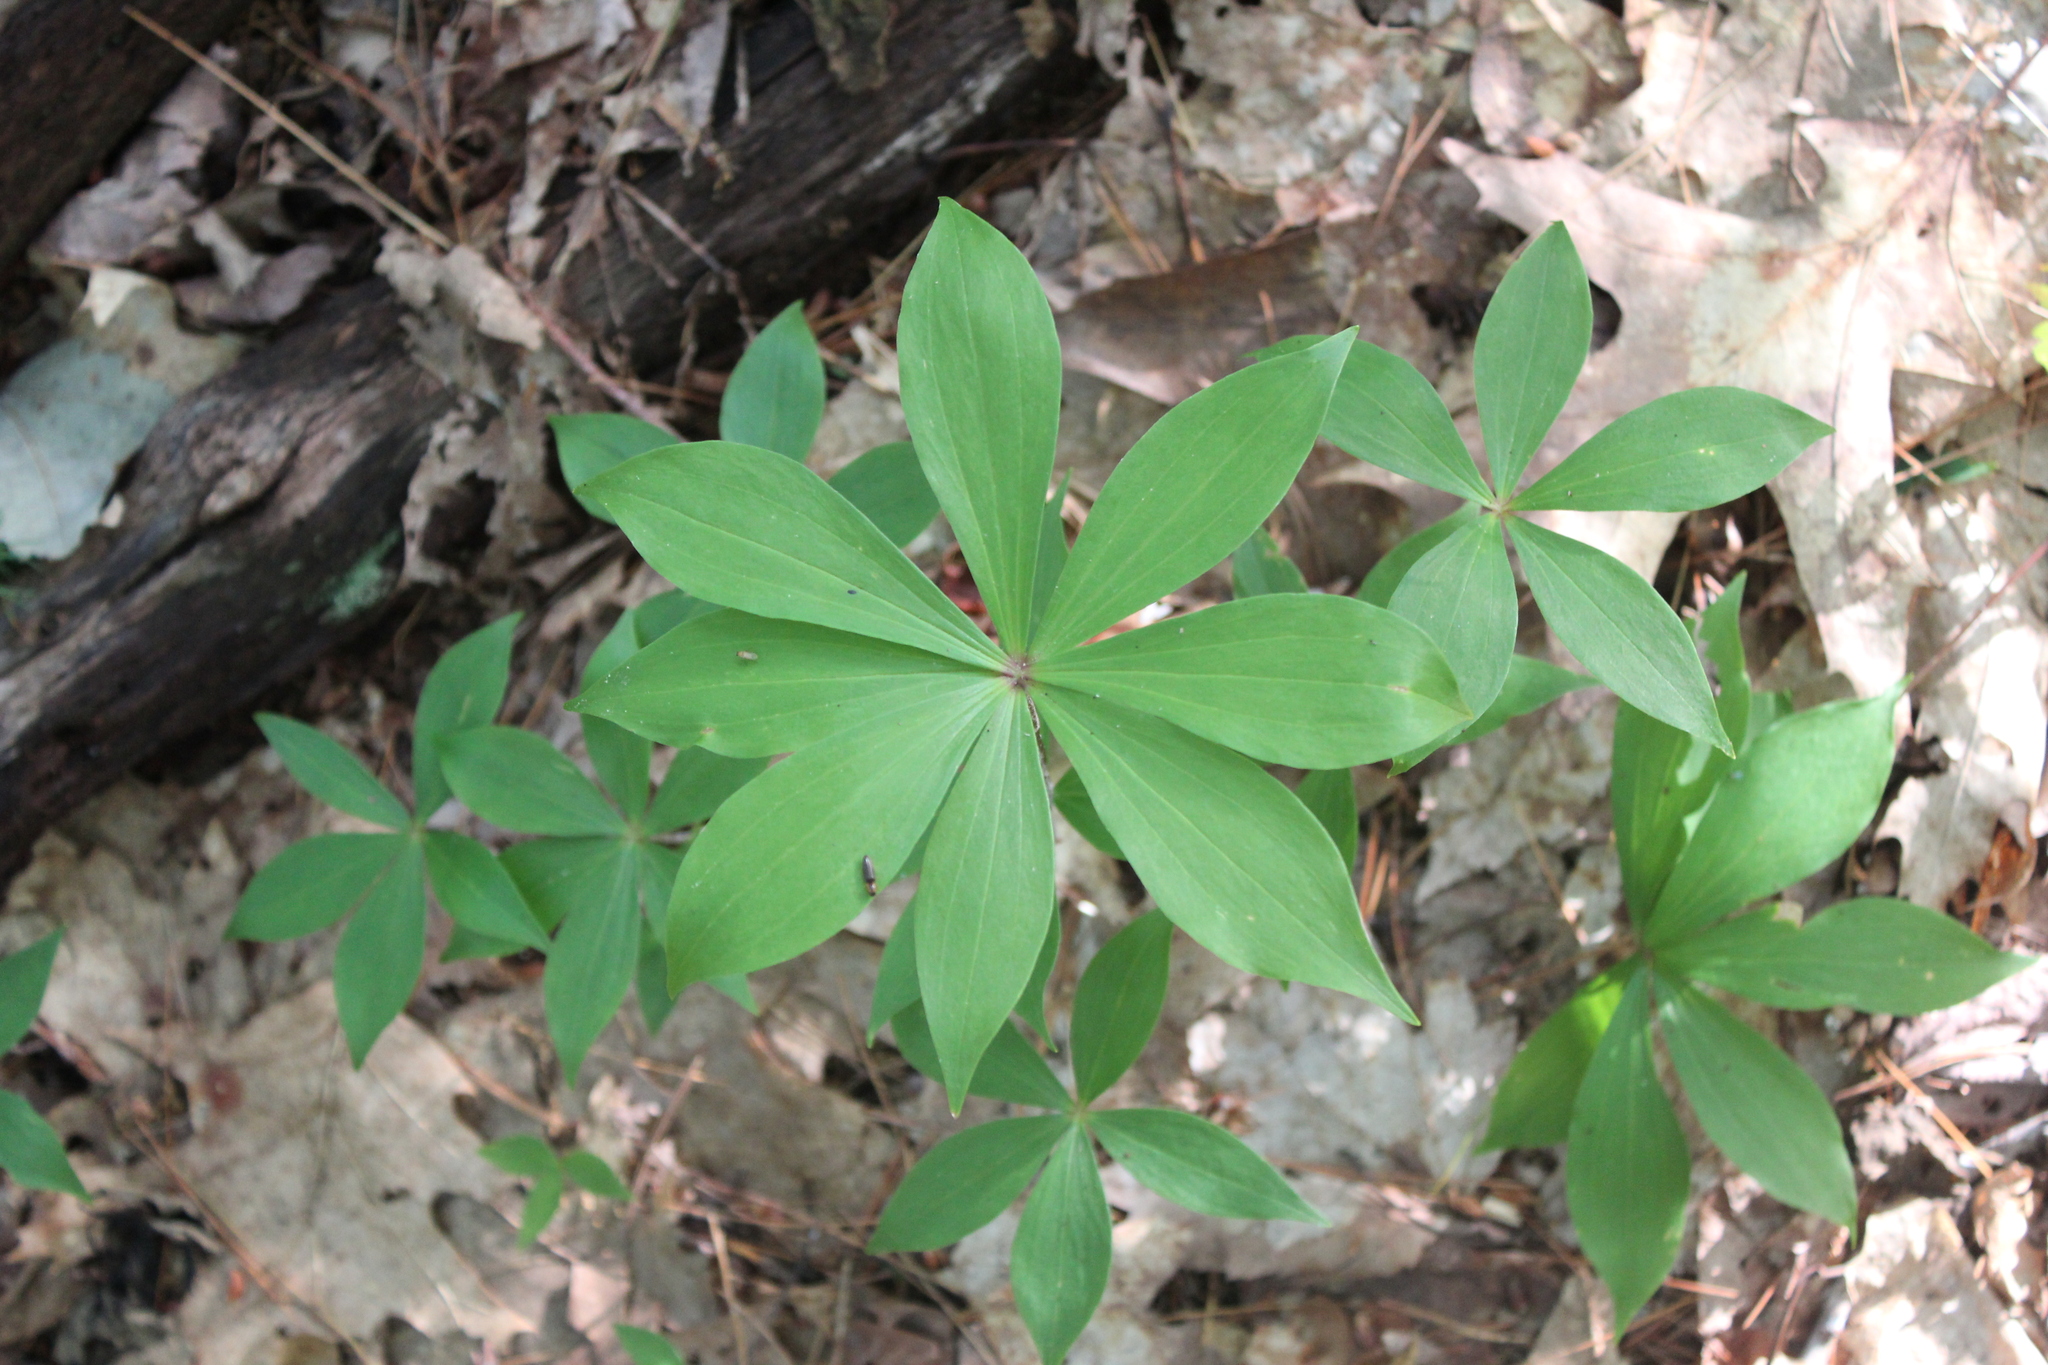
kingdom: Plantae
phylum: Tracheophyta
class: Liliopsida
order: Liliales
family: Liliaceae
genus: Medeola
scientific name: Medeola virginiana
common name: Indian cucumber-root
